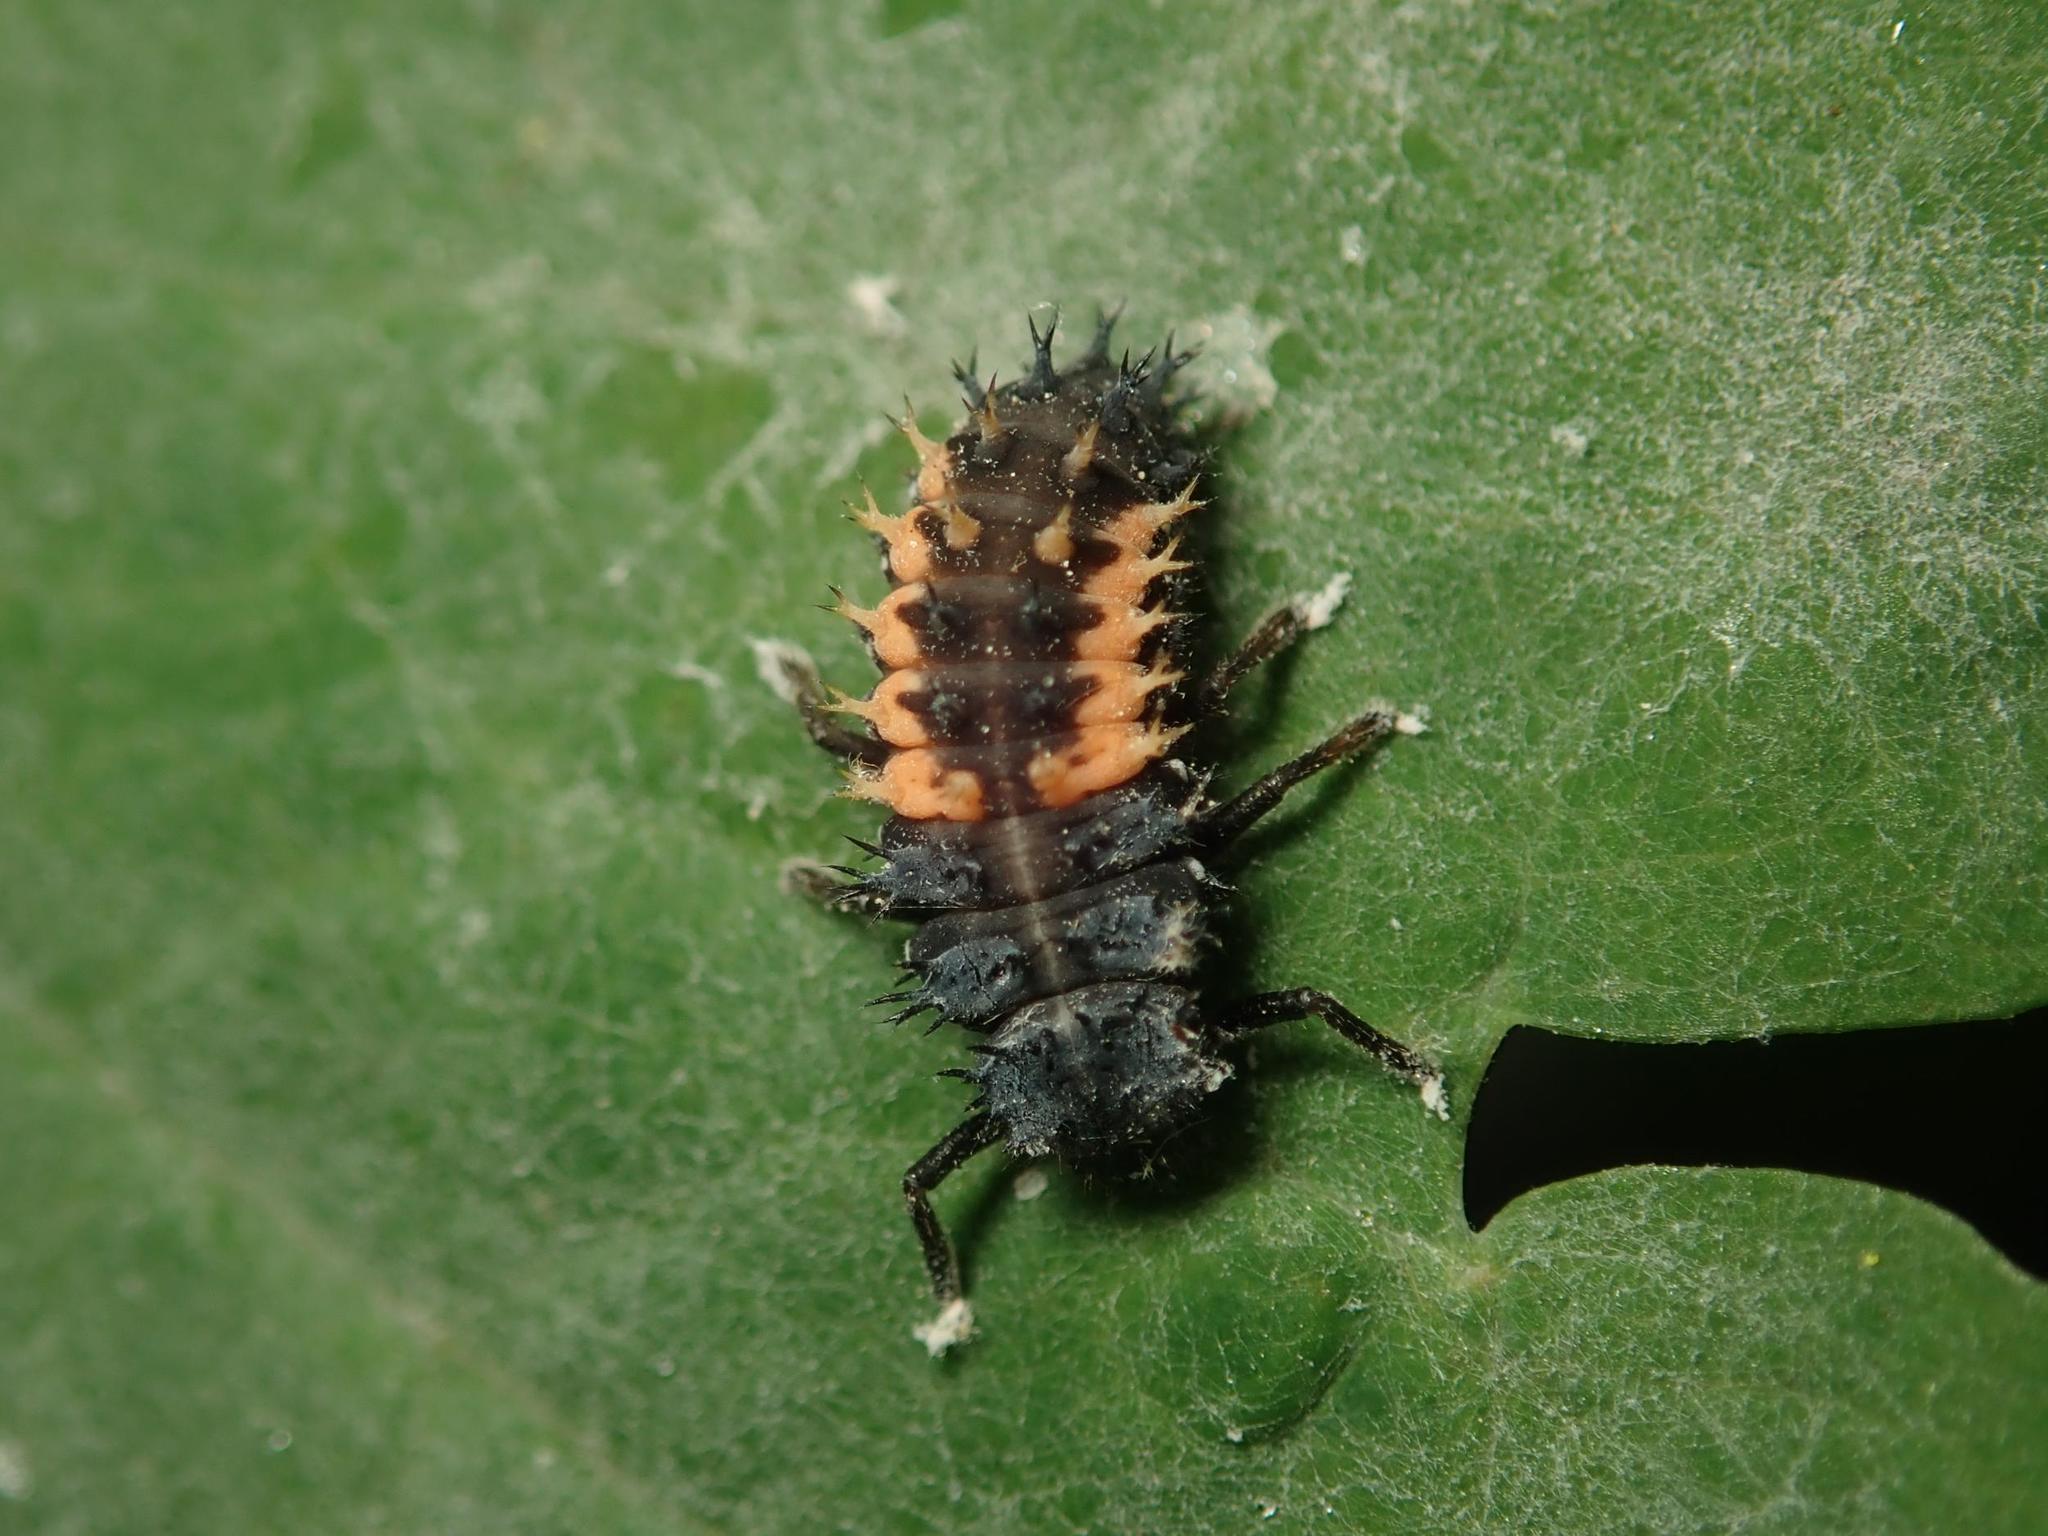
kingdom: Animalia
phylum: Arthropoda
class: Insecta
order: Coleoptera
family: Coccinellidae
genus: Harmonia
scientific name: Harmonia axyridis
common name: Harlequin ladybird
